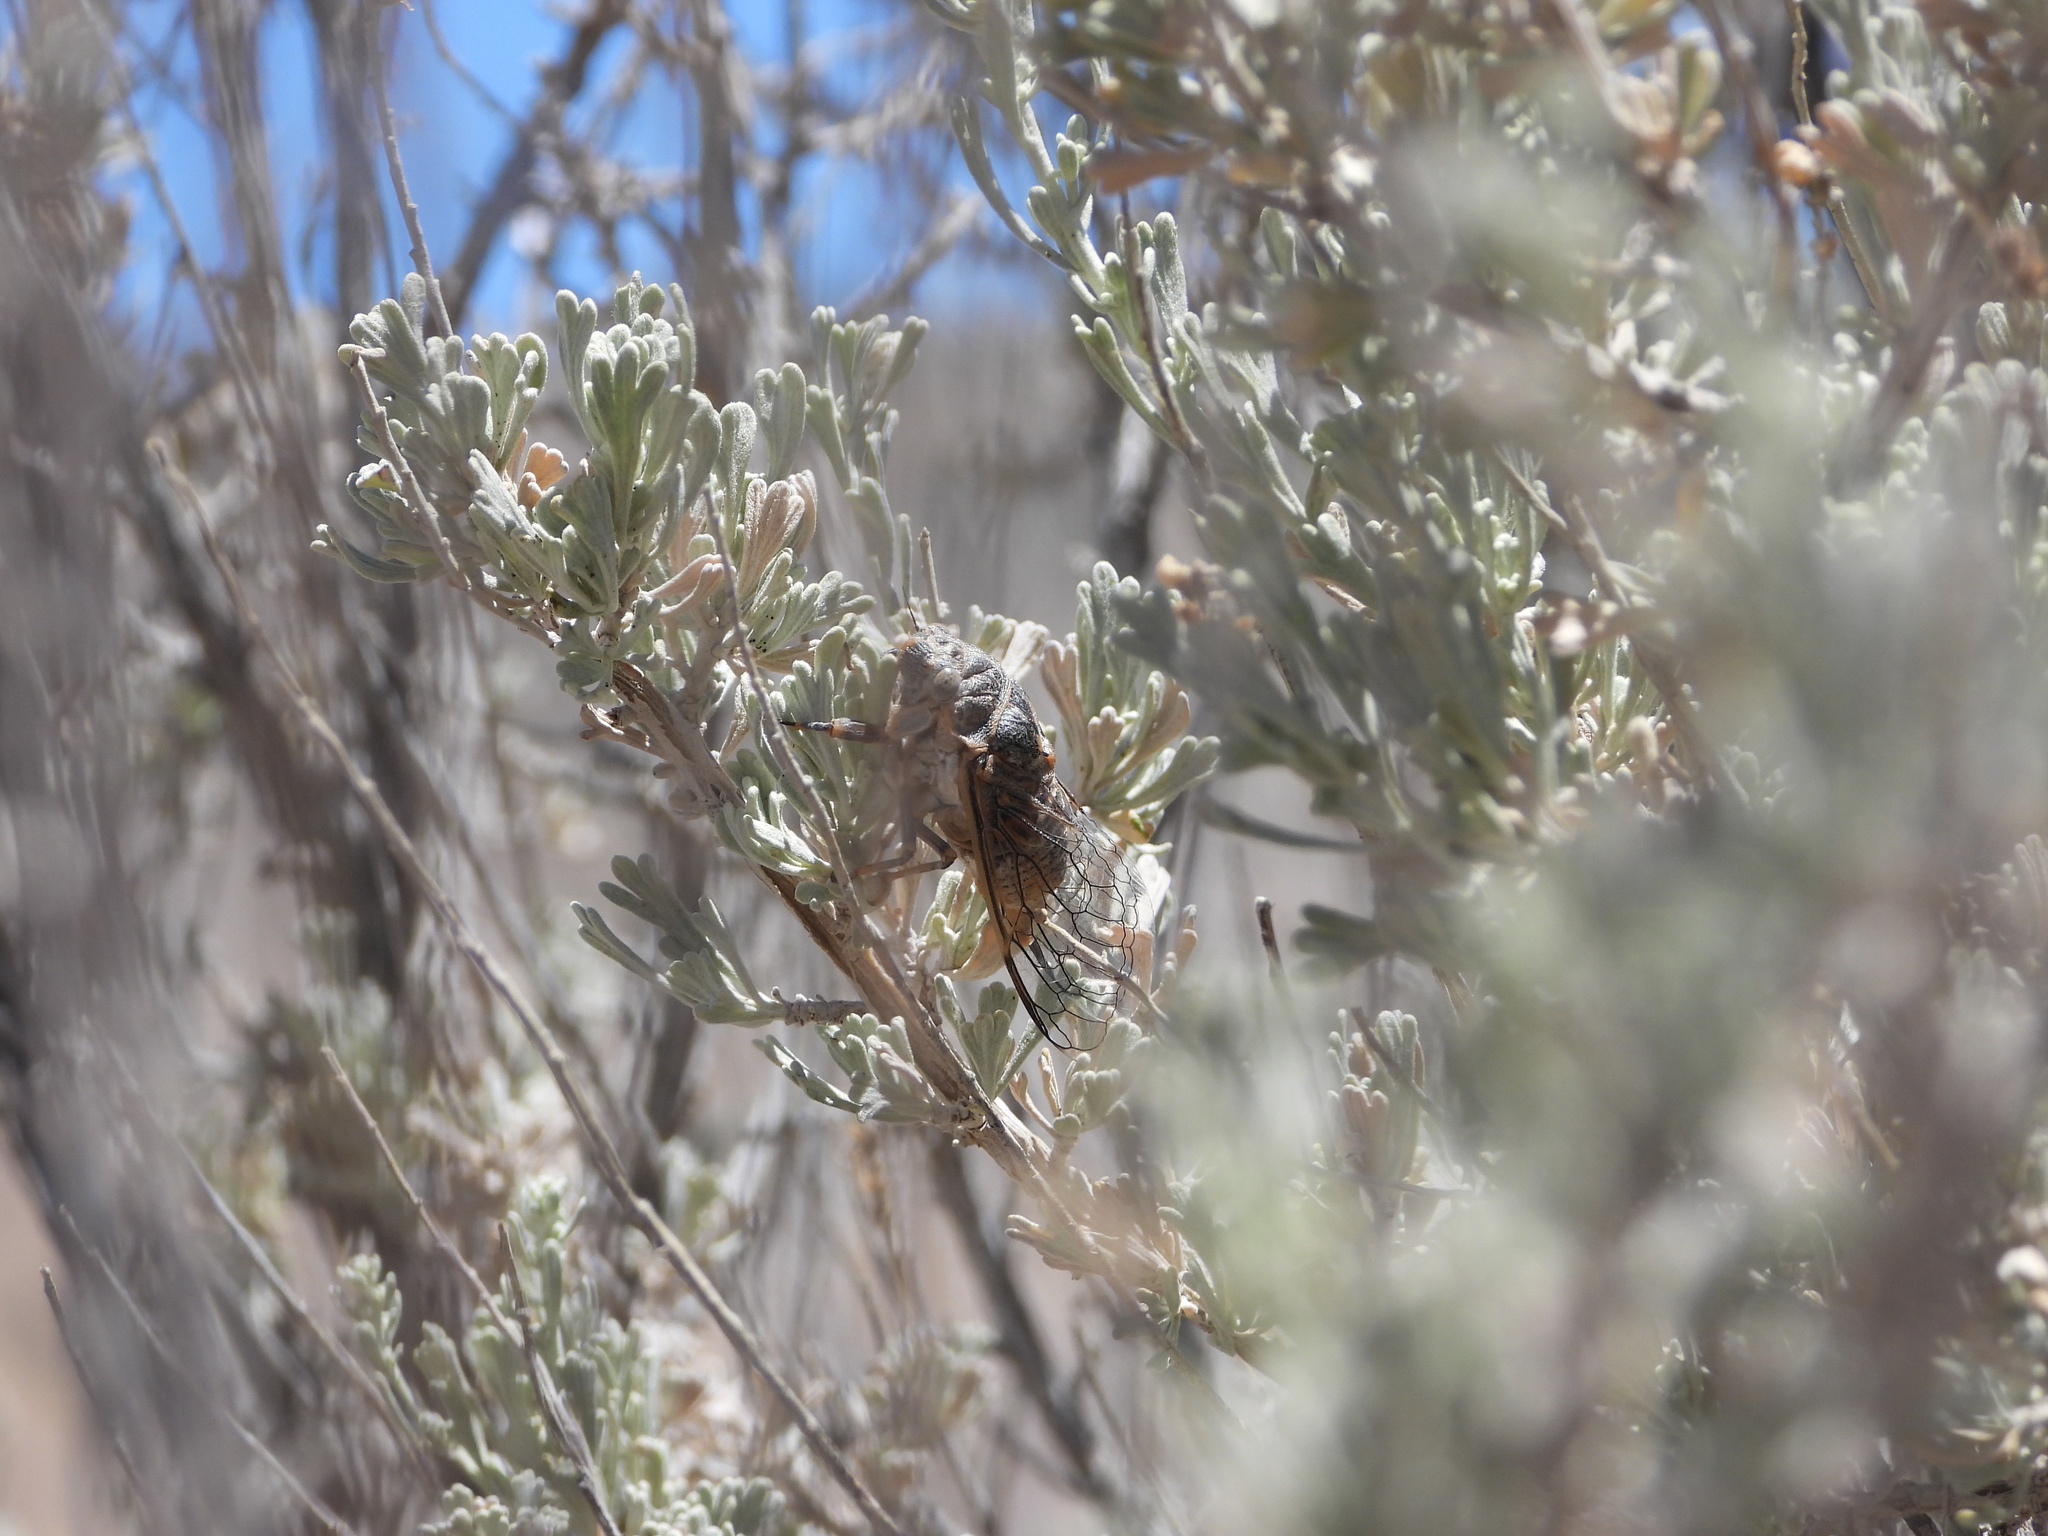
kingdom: Animalia
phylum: Arthropoda
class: Insecta
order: Hemiptera
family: Cicadidae
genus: Tibicinoides
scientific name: Tibicinoides
